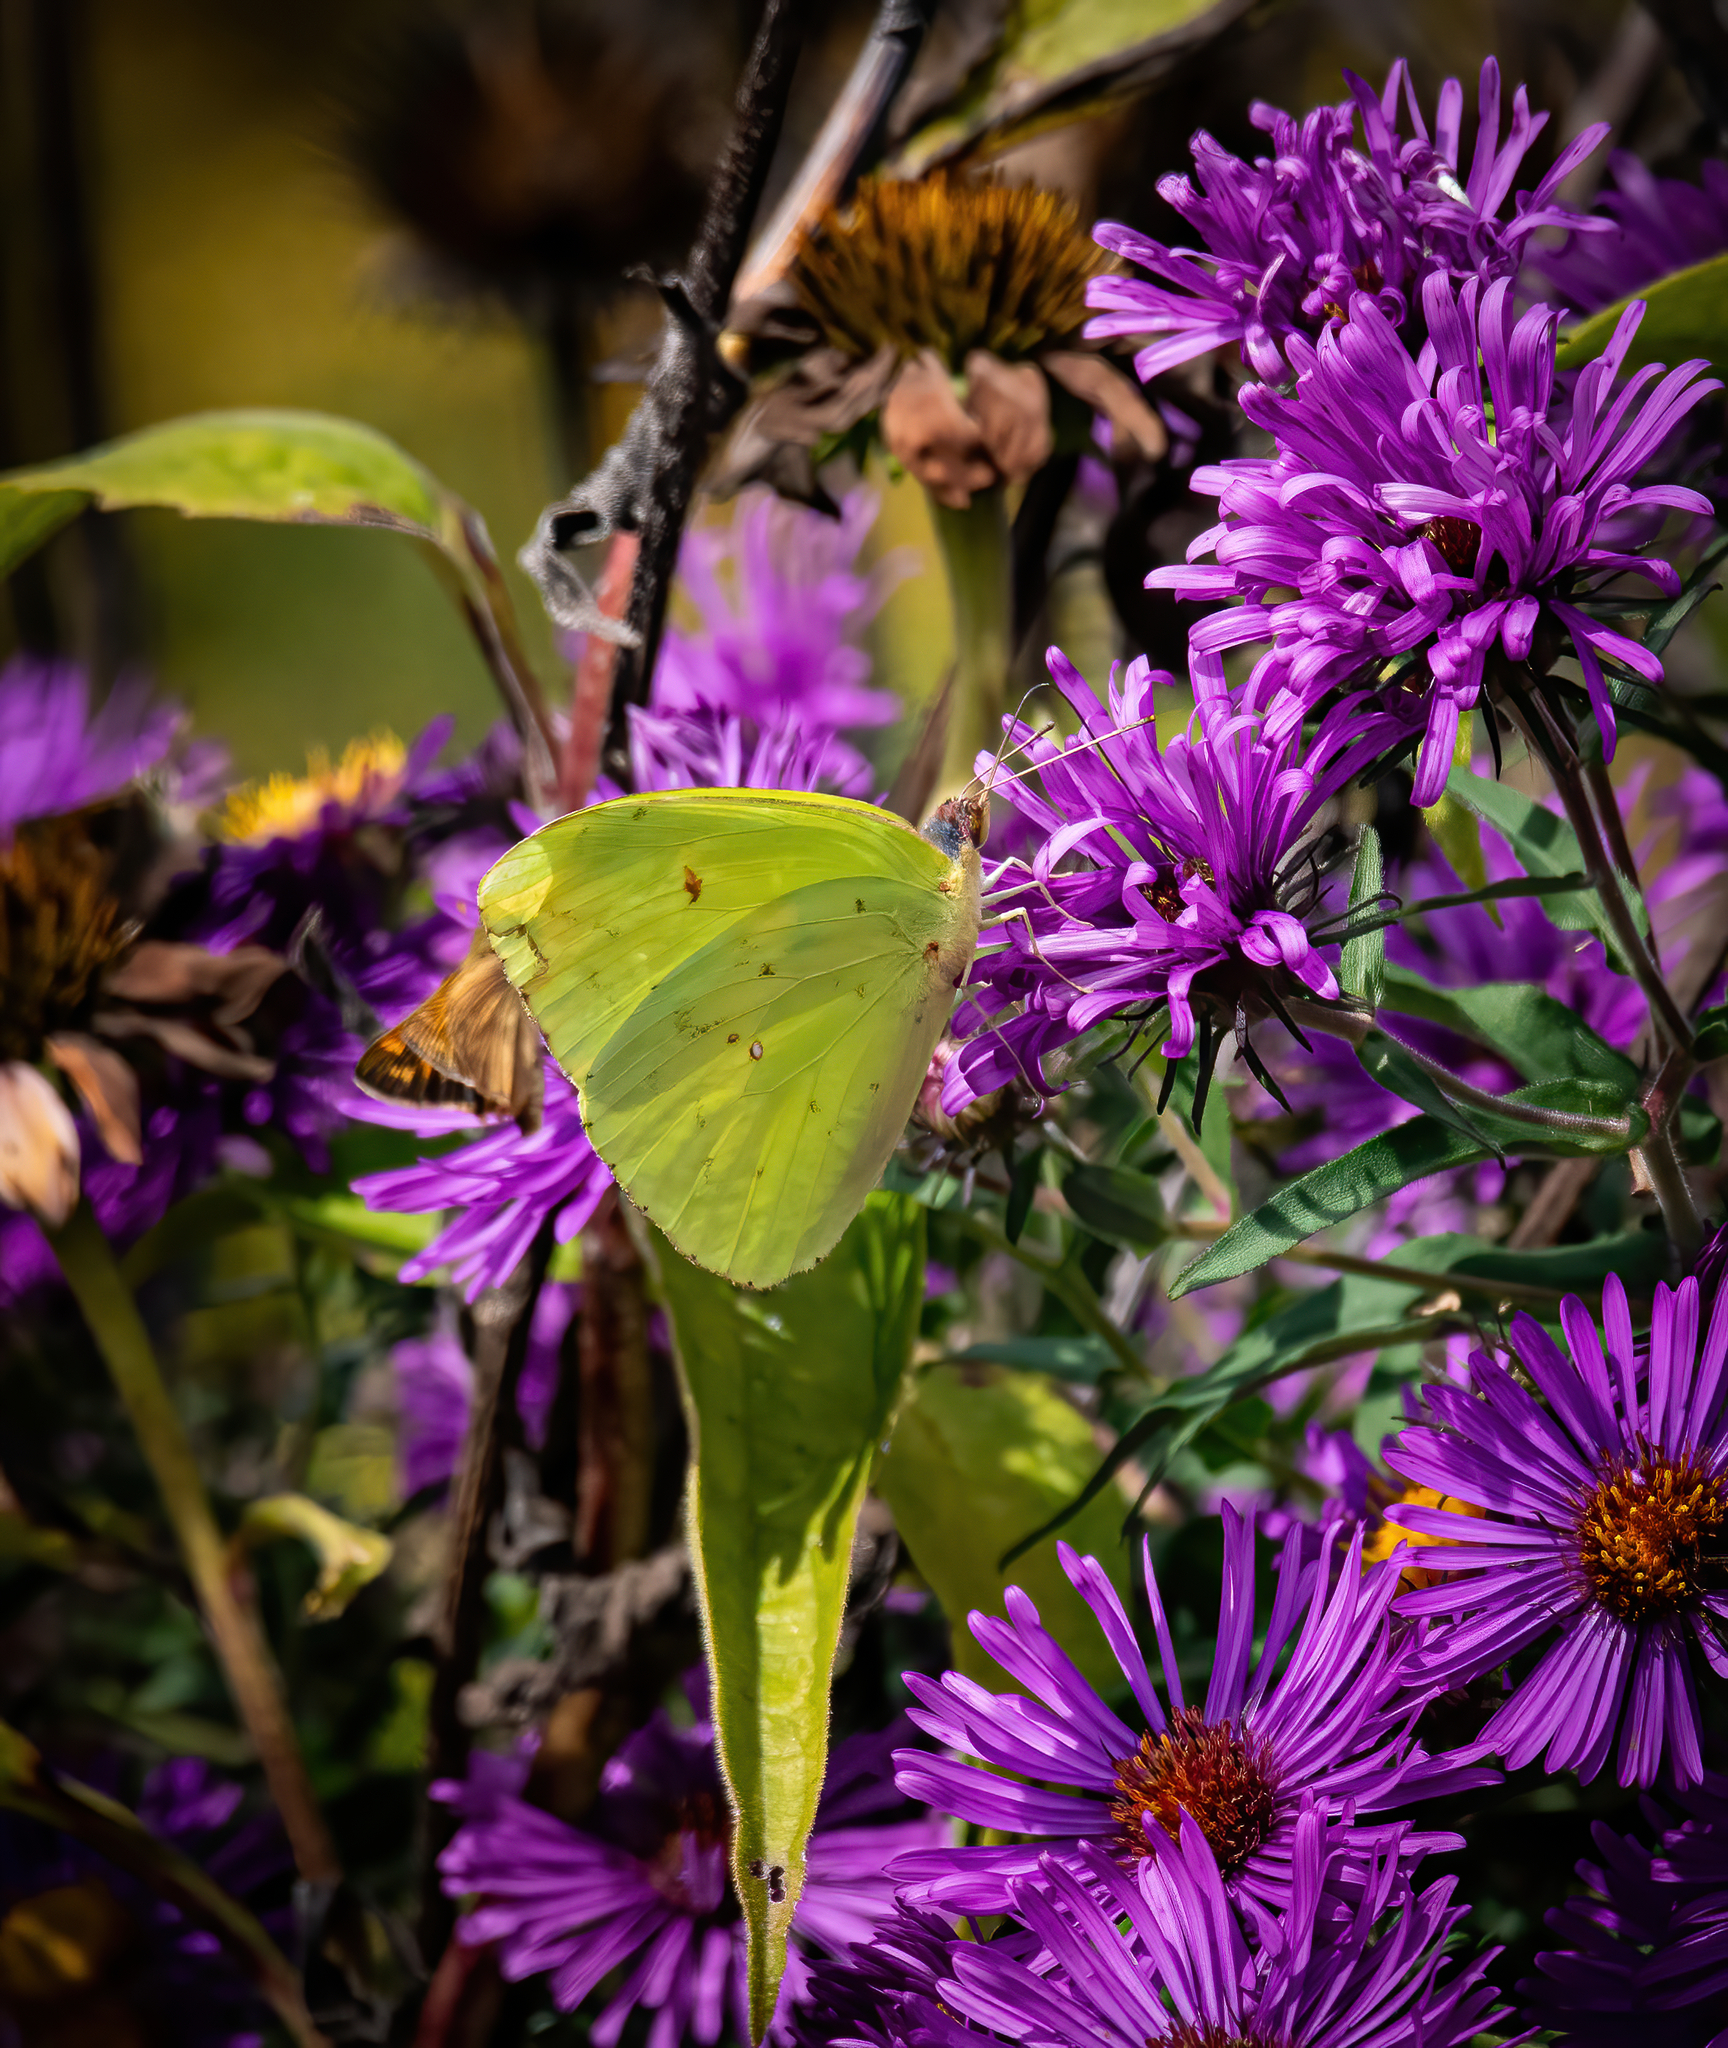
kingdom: Animalia
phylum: Arthropoda
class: Insecta
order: Lepidoptera
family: Pieridae
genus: Phoebis
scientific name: Phoebis sennae
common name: Cloudless sulphur
